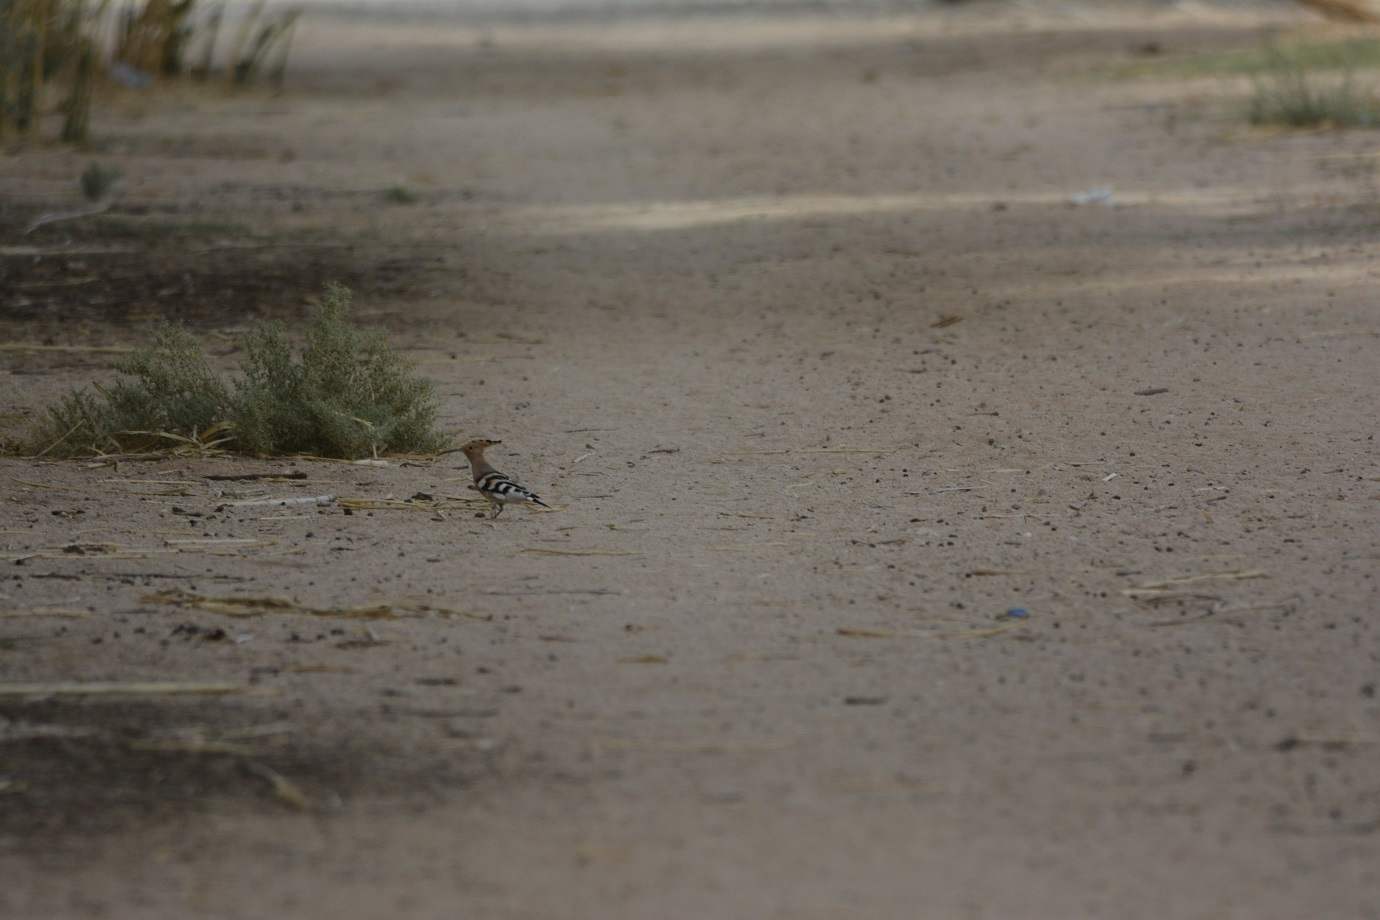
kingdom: Animalia
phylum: Chordata
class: Aves
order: Bucerotiformes
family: Upupidae
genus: Upupa
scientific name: Upupa epops
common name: Eurasian hoopoe
